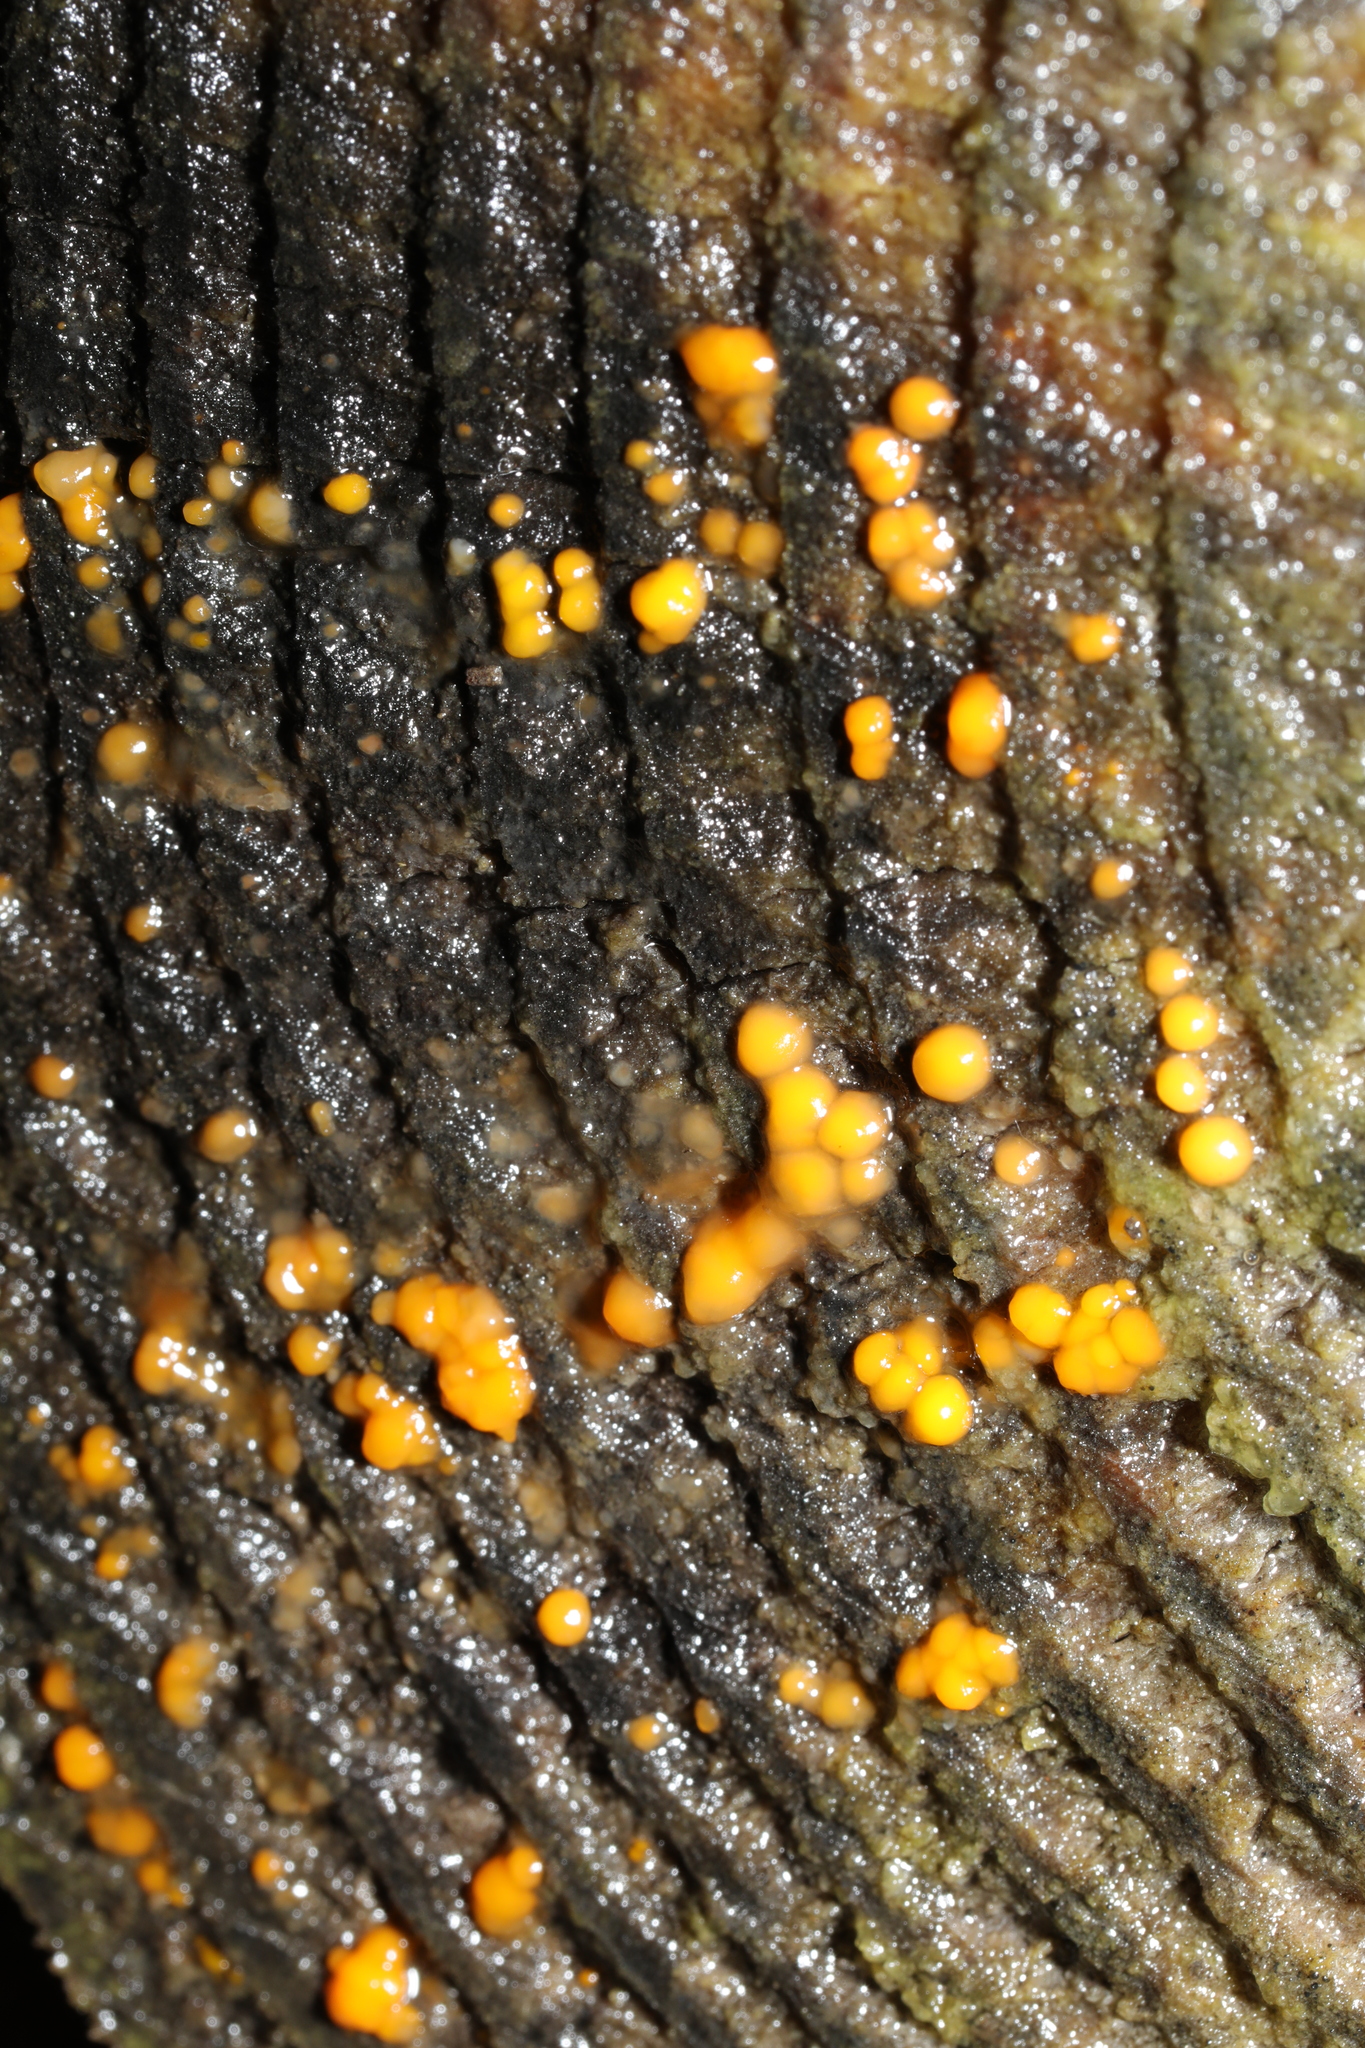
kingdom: Fungi
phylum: Basidiomycota
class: Dacrymycetes
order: Dacrymycetales
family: Dacrymycetaceae
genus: Dacrymyces
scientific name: Dacrymyces stillatus
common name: Common jelly spot
